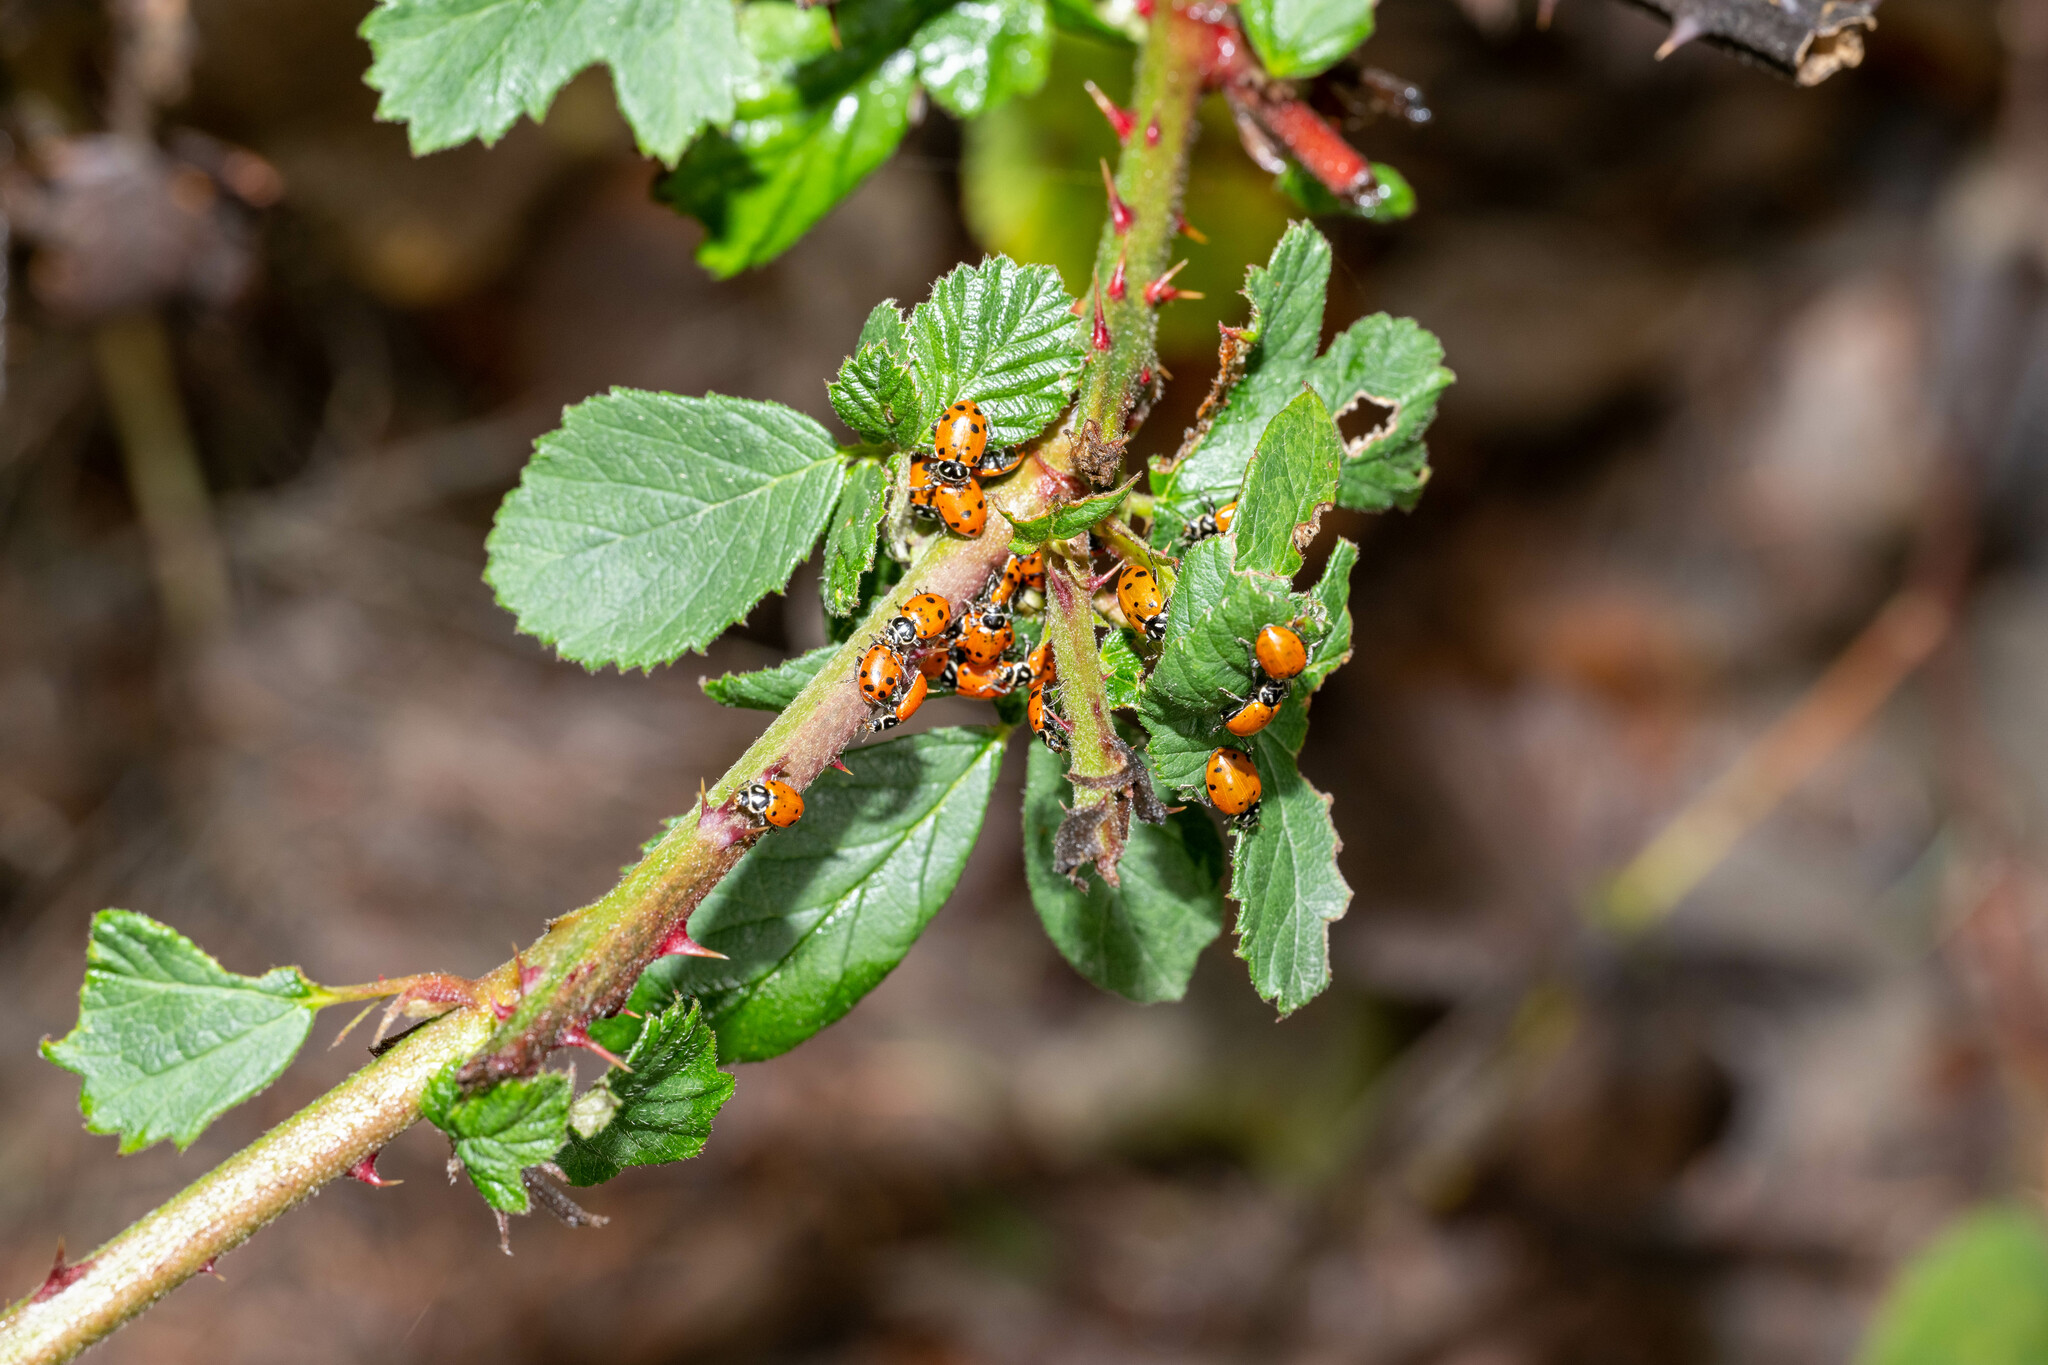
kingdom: Animalia
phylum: Arthropoda
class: Insecta
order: Coleoptera
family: Coccinellidae
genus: Hippodamia
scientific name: Hippodamia convergens
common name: Convergent lady beetle
